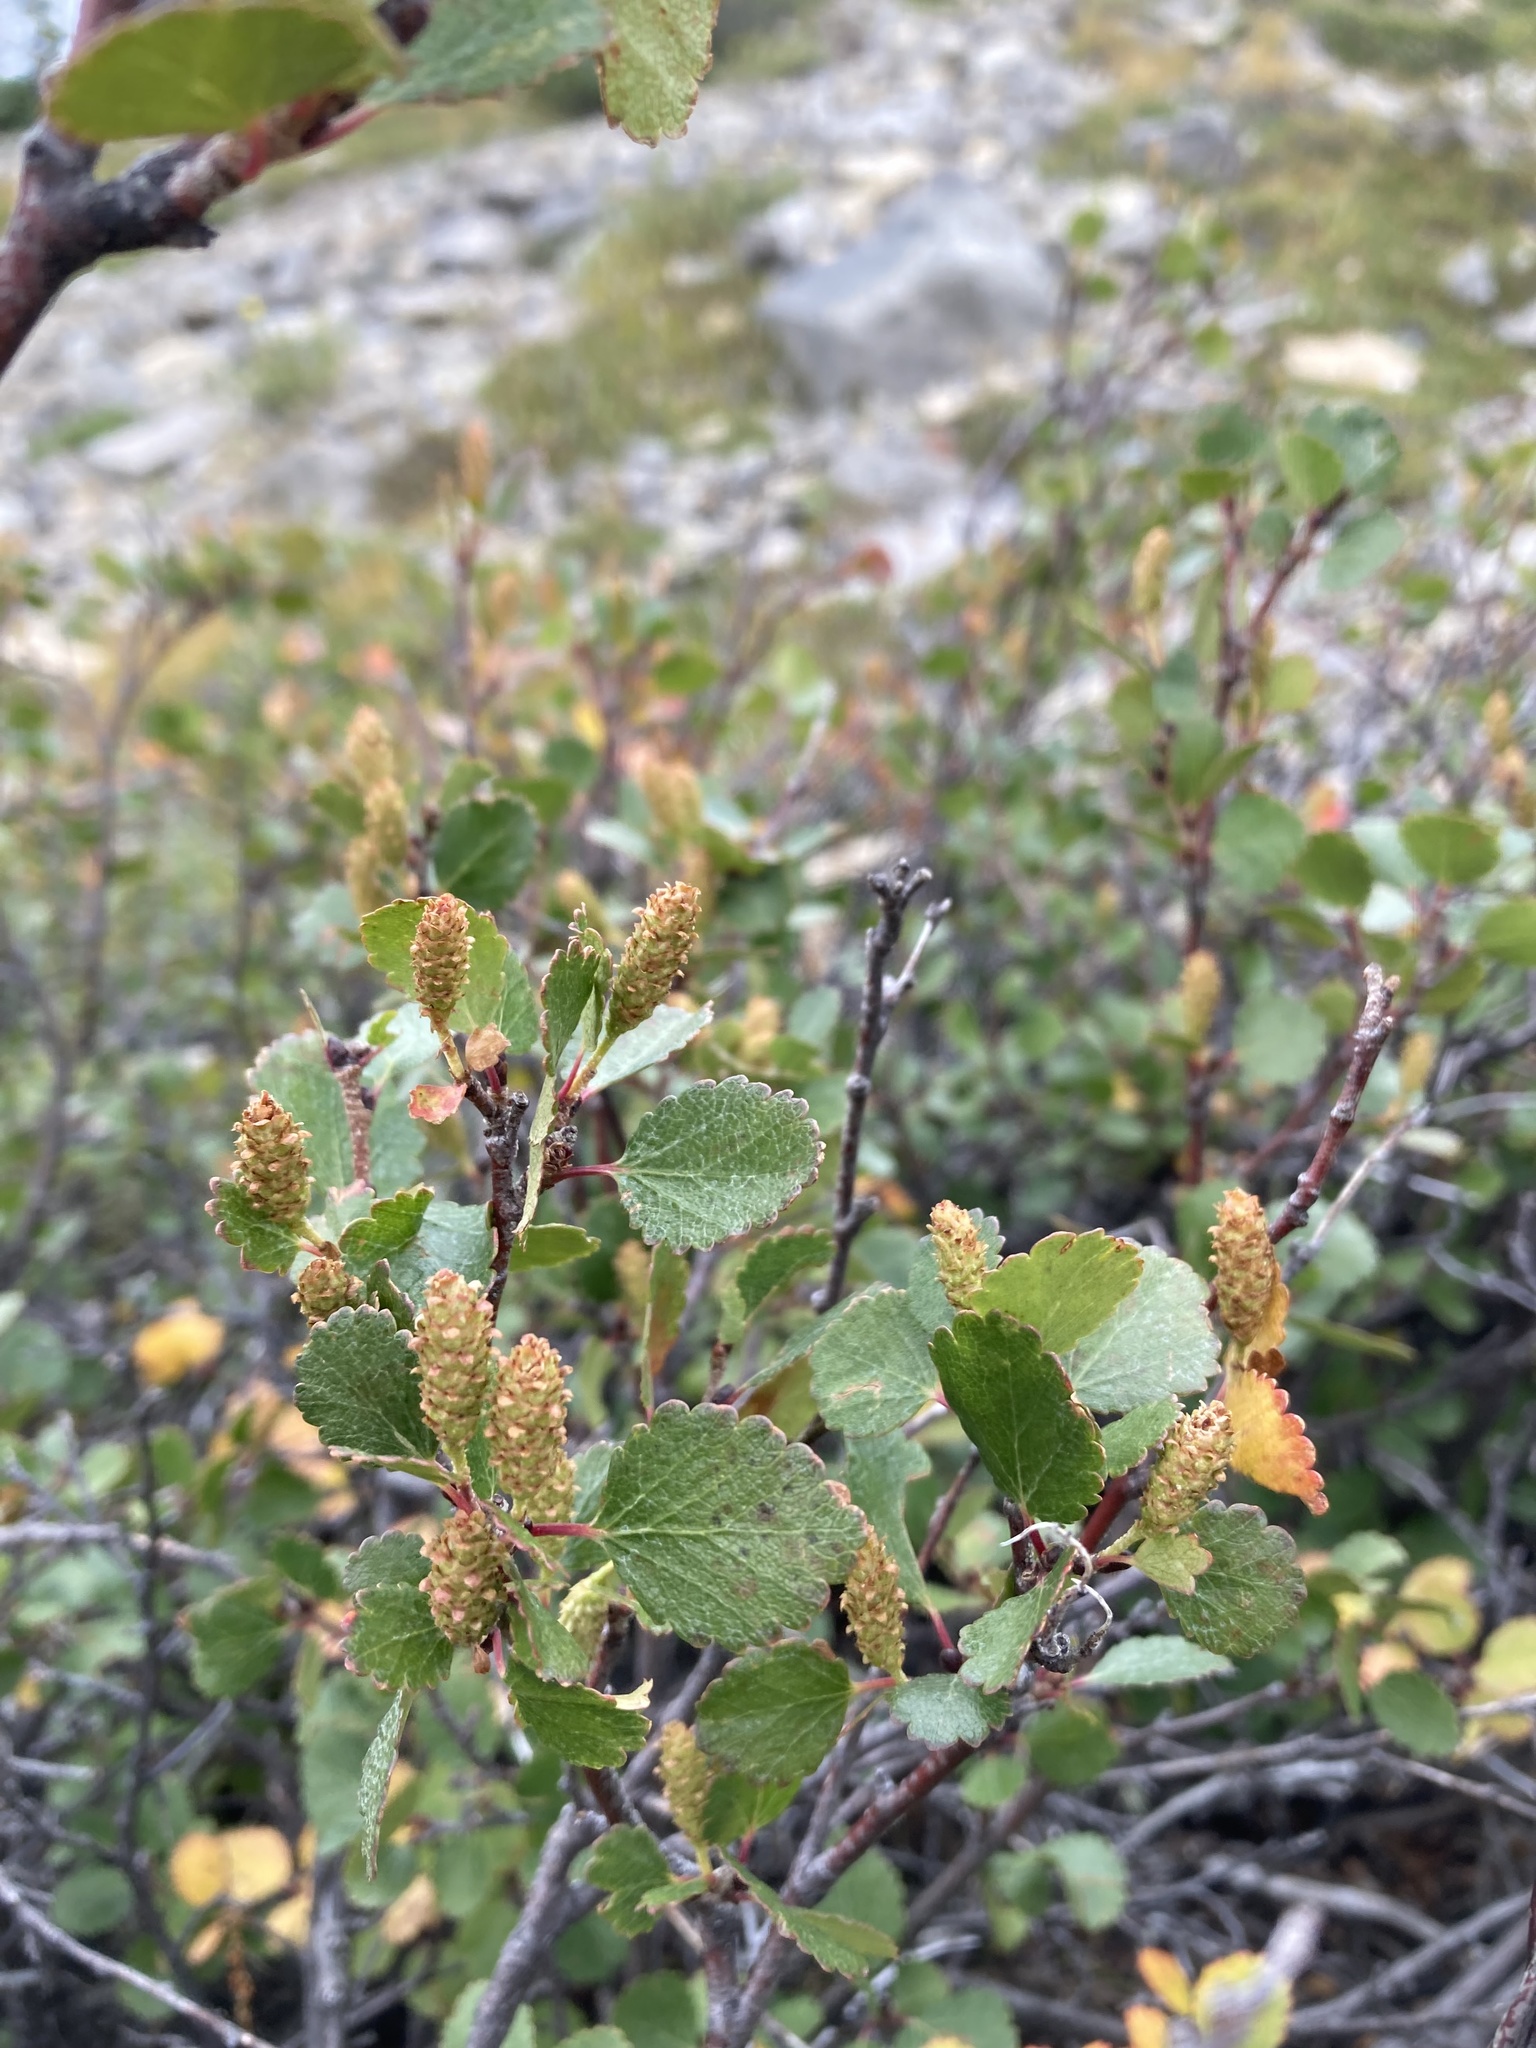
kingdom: Plantae
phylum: Tracheophyta
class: Magnoliopsida
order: Fagales
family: Betulaceae
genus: Betula
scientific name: Betula nana
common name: Arctic dwarf birch
